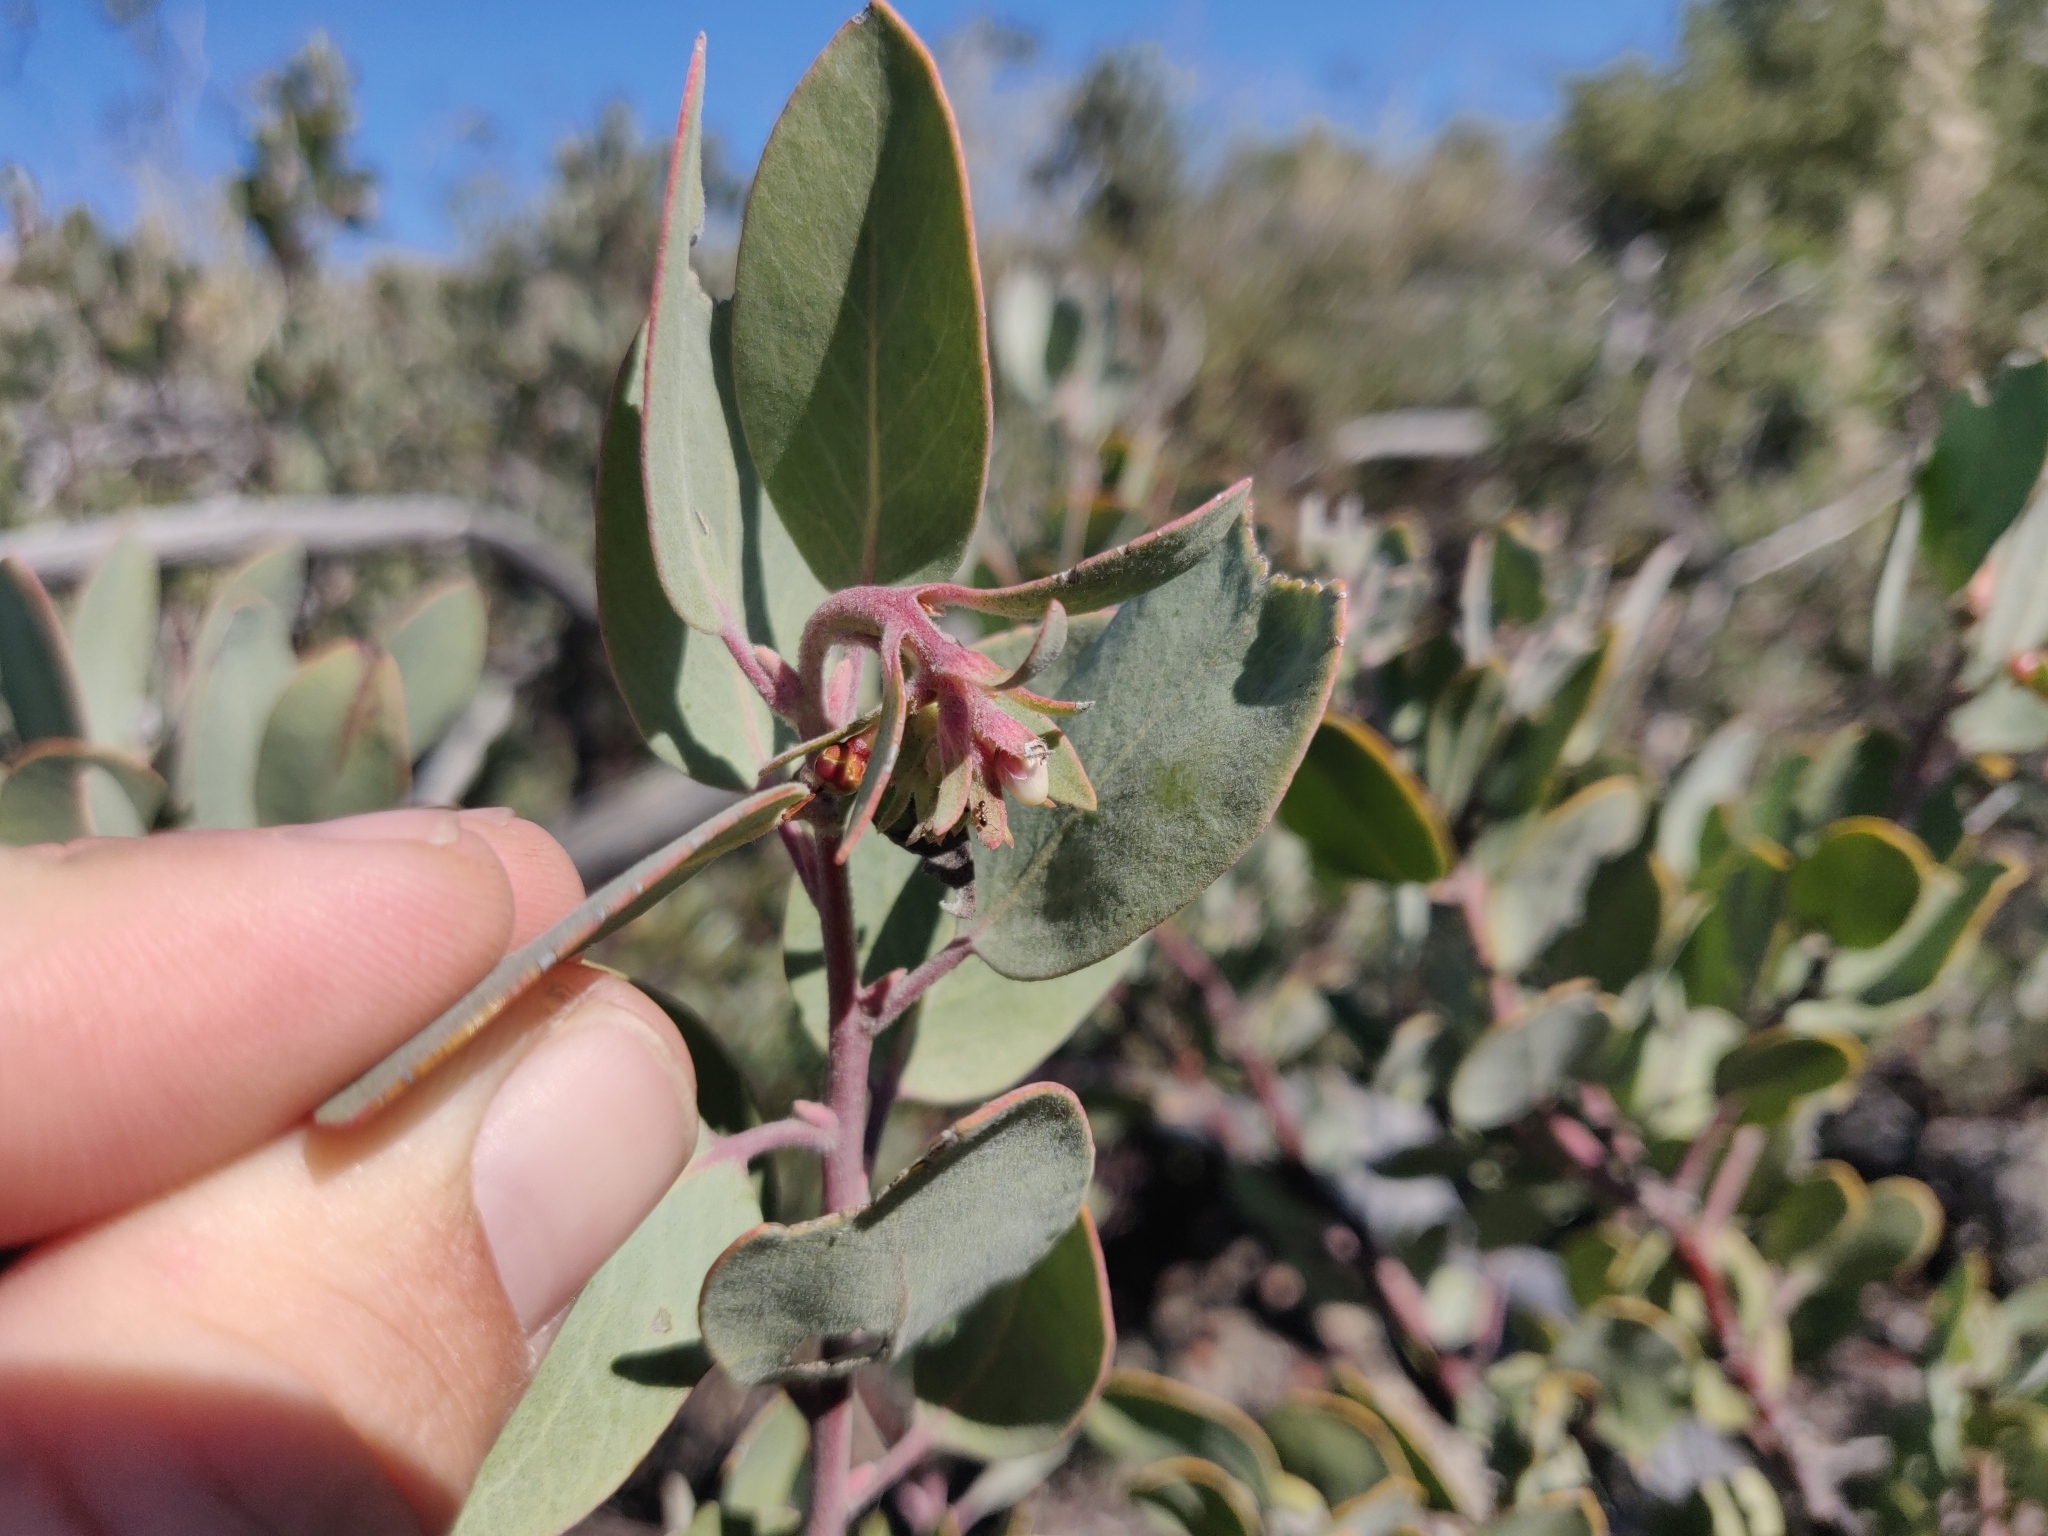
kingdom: Plantae
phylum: Tracheophyta
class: Magnoliopsida
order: Ericales
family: Ericaceae
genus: Arctostaphylos
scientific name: Arctostaphylos silvicola
